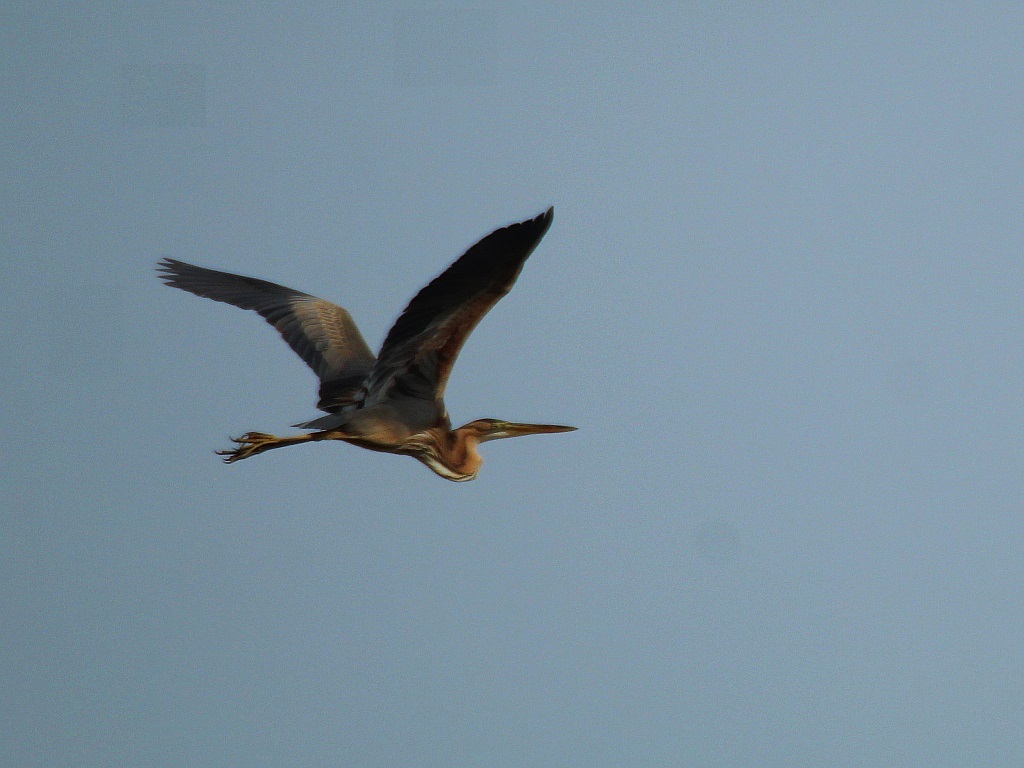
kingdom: Animalia
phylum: Chordata
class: Aves
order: Pelecaniformes
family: Ardeidae
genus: Ardea
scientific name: Ardea purpurea
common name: Purple heron
